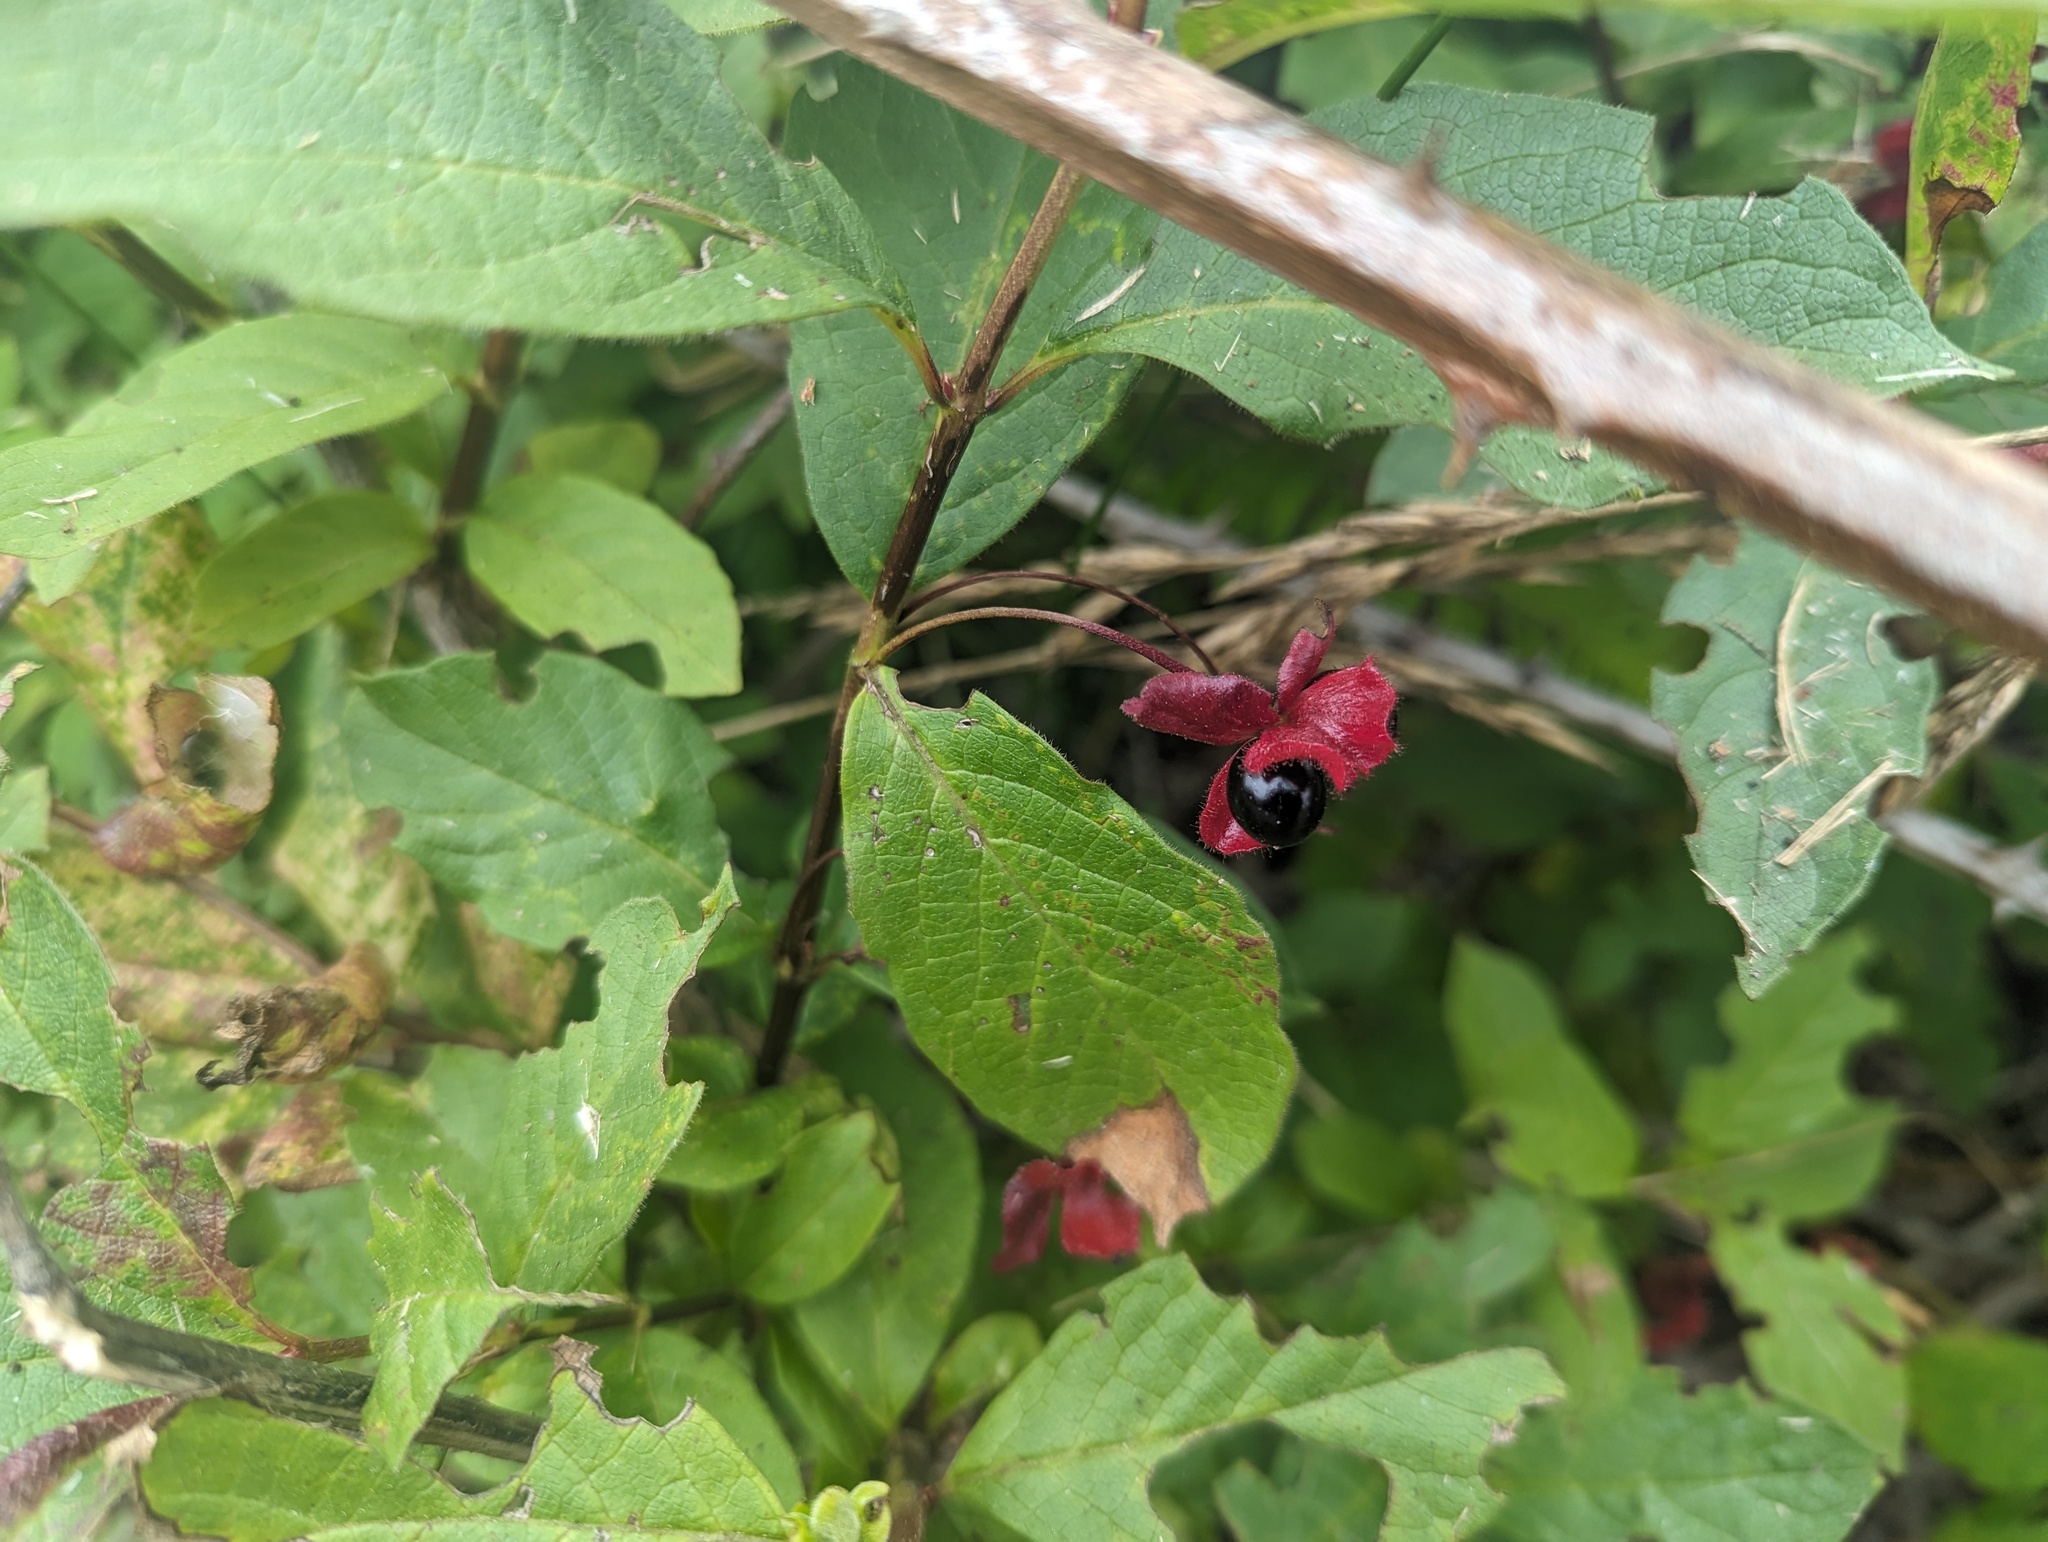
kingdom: Plantae
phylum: Tracheophyta
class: Magnoliopsida
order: Dipsacales
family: Caprifoliaceae
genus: Lonicera
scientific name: Lonicera involucrata
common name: Californian honeysuckle
